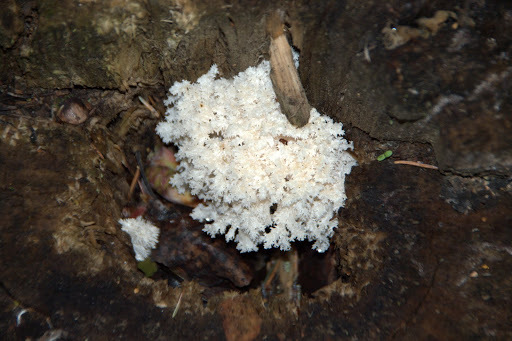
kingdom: Fungi
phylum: Basidiomycota
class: Agaricomycetes
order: Russulales
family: Hericiaceae
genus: Hericium
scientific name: Hericium coralloides
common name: Coral tooth
